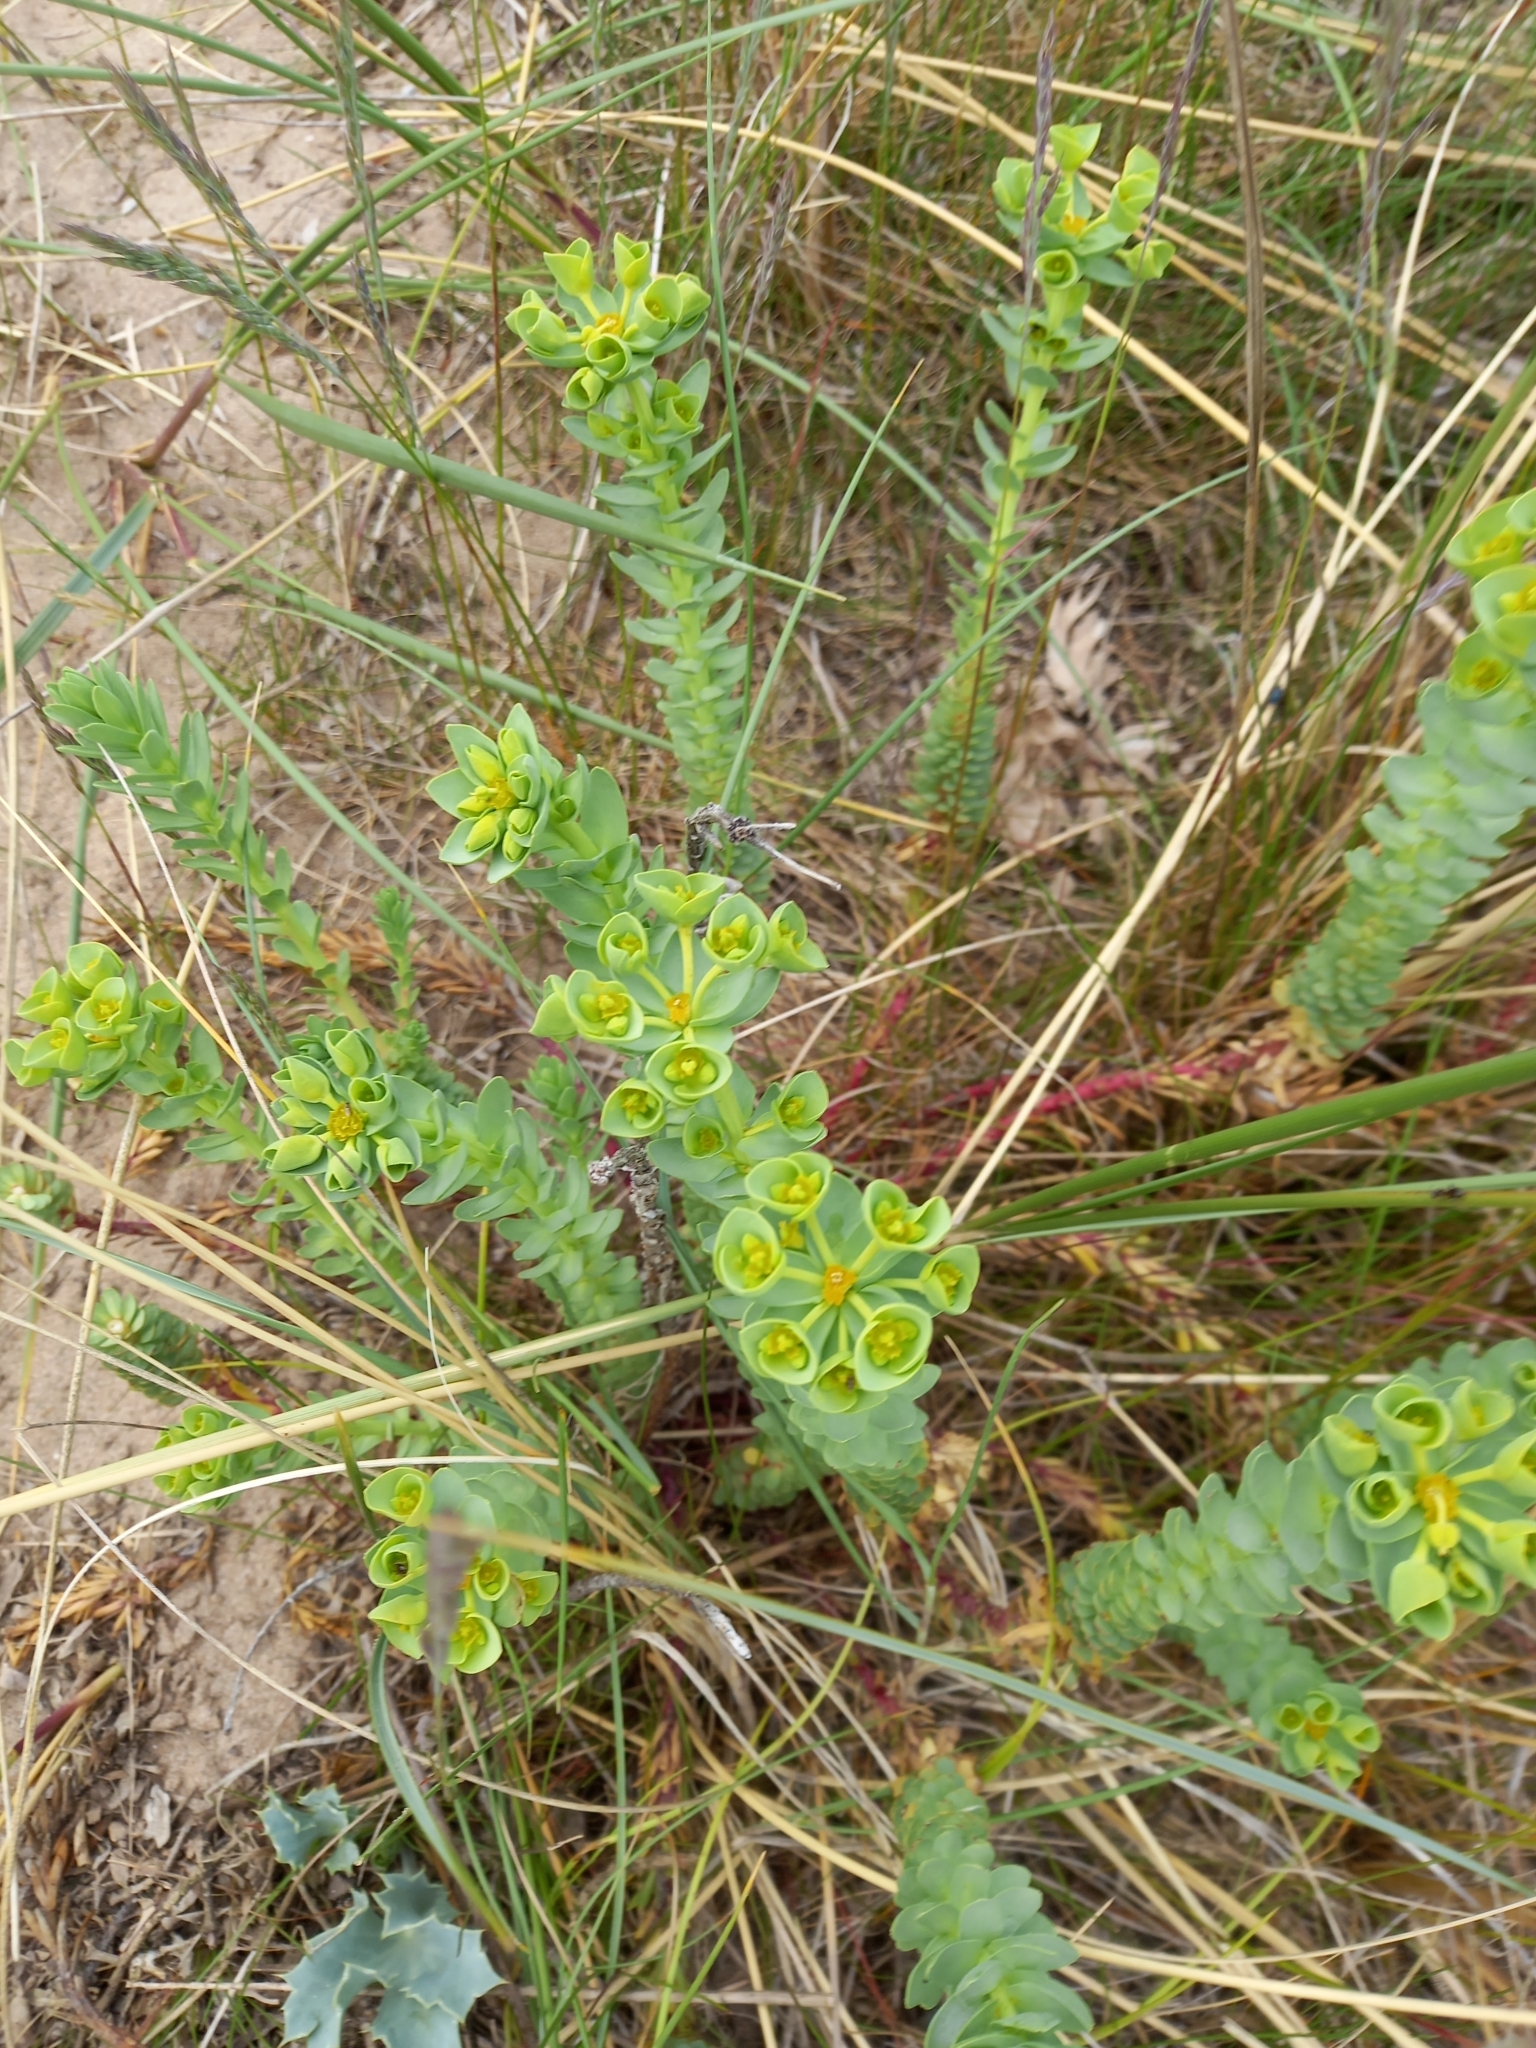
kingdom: Plantae
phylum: Tracheophyta
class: Magnoliopsida
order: Malpighiales
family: Euphorbiaceae
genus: Euphorbia
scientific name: Euphorbia paralias
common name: Sea spurge
